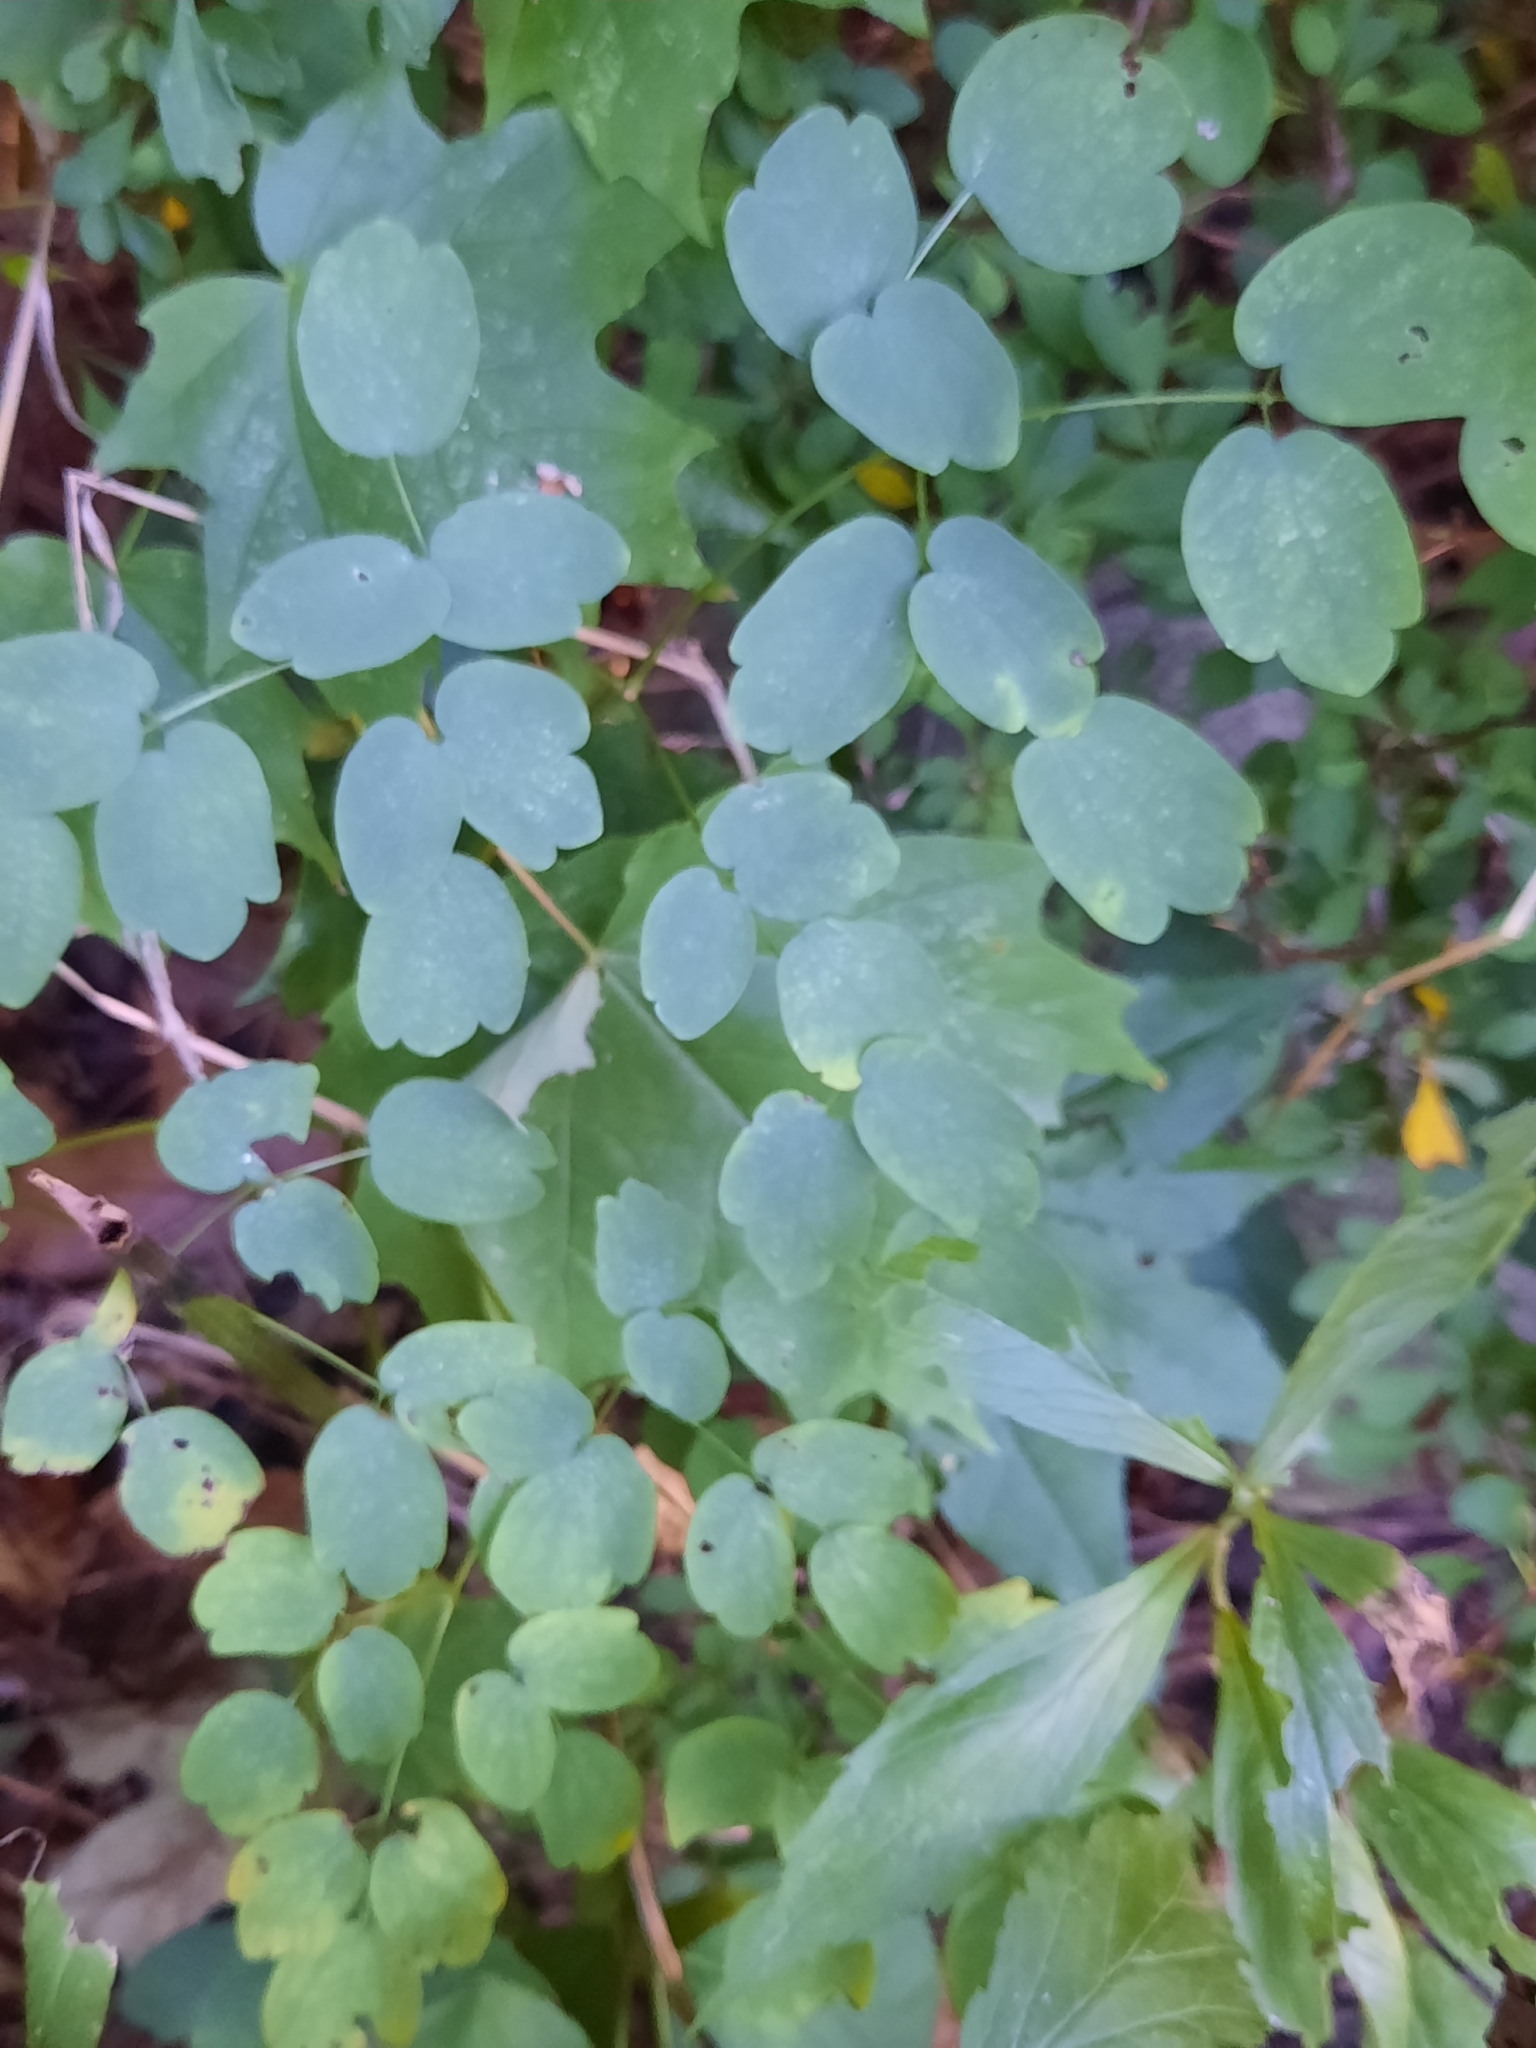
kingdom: Plantae
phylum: Tracheophyta
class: Magnoliopsida
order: Ranunculales
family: Ranunculaceae
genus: Thalictrum
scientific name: Thalictrum pubescens
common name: King-of-the-meadow
